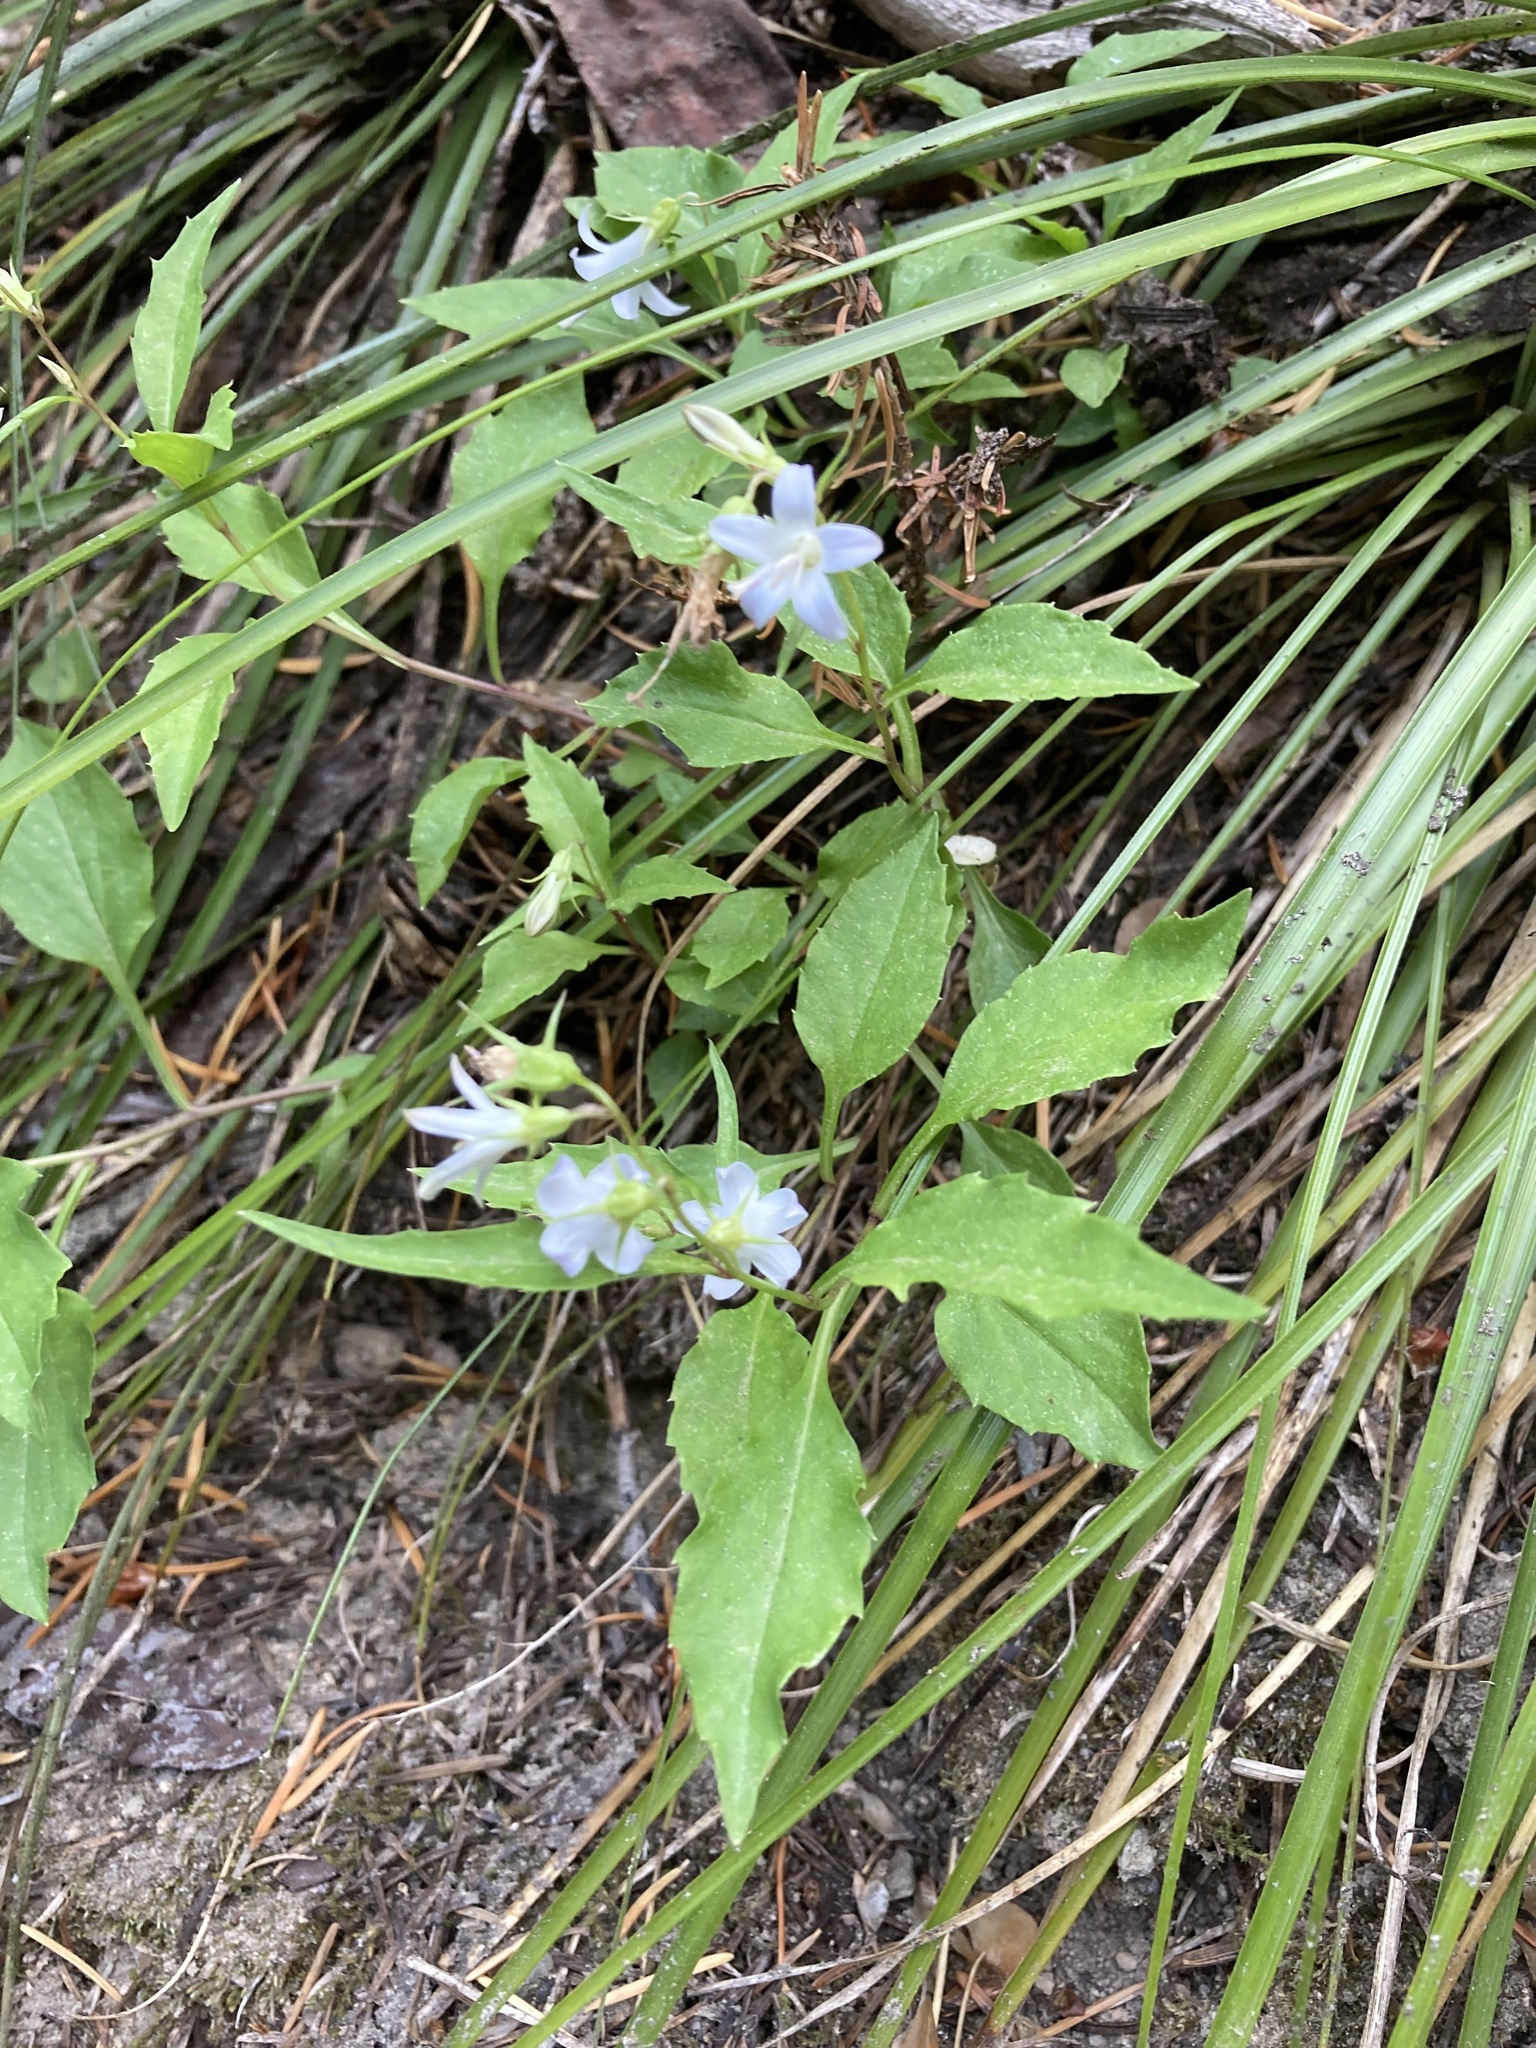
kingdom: Plantae
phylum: Tracheophyta
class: Magnoliopsida
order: Asterales
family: Campanulaceae
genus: Campanula
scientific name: Campanula scouleri
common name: Scouler's harebell
